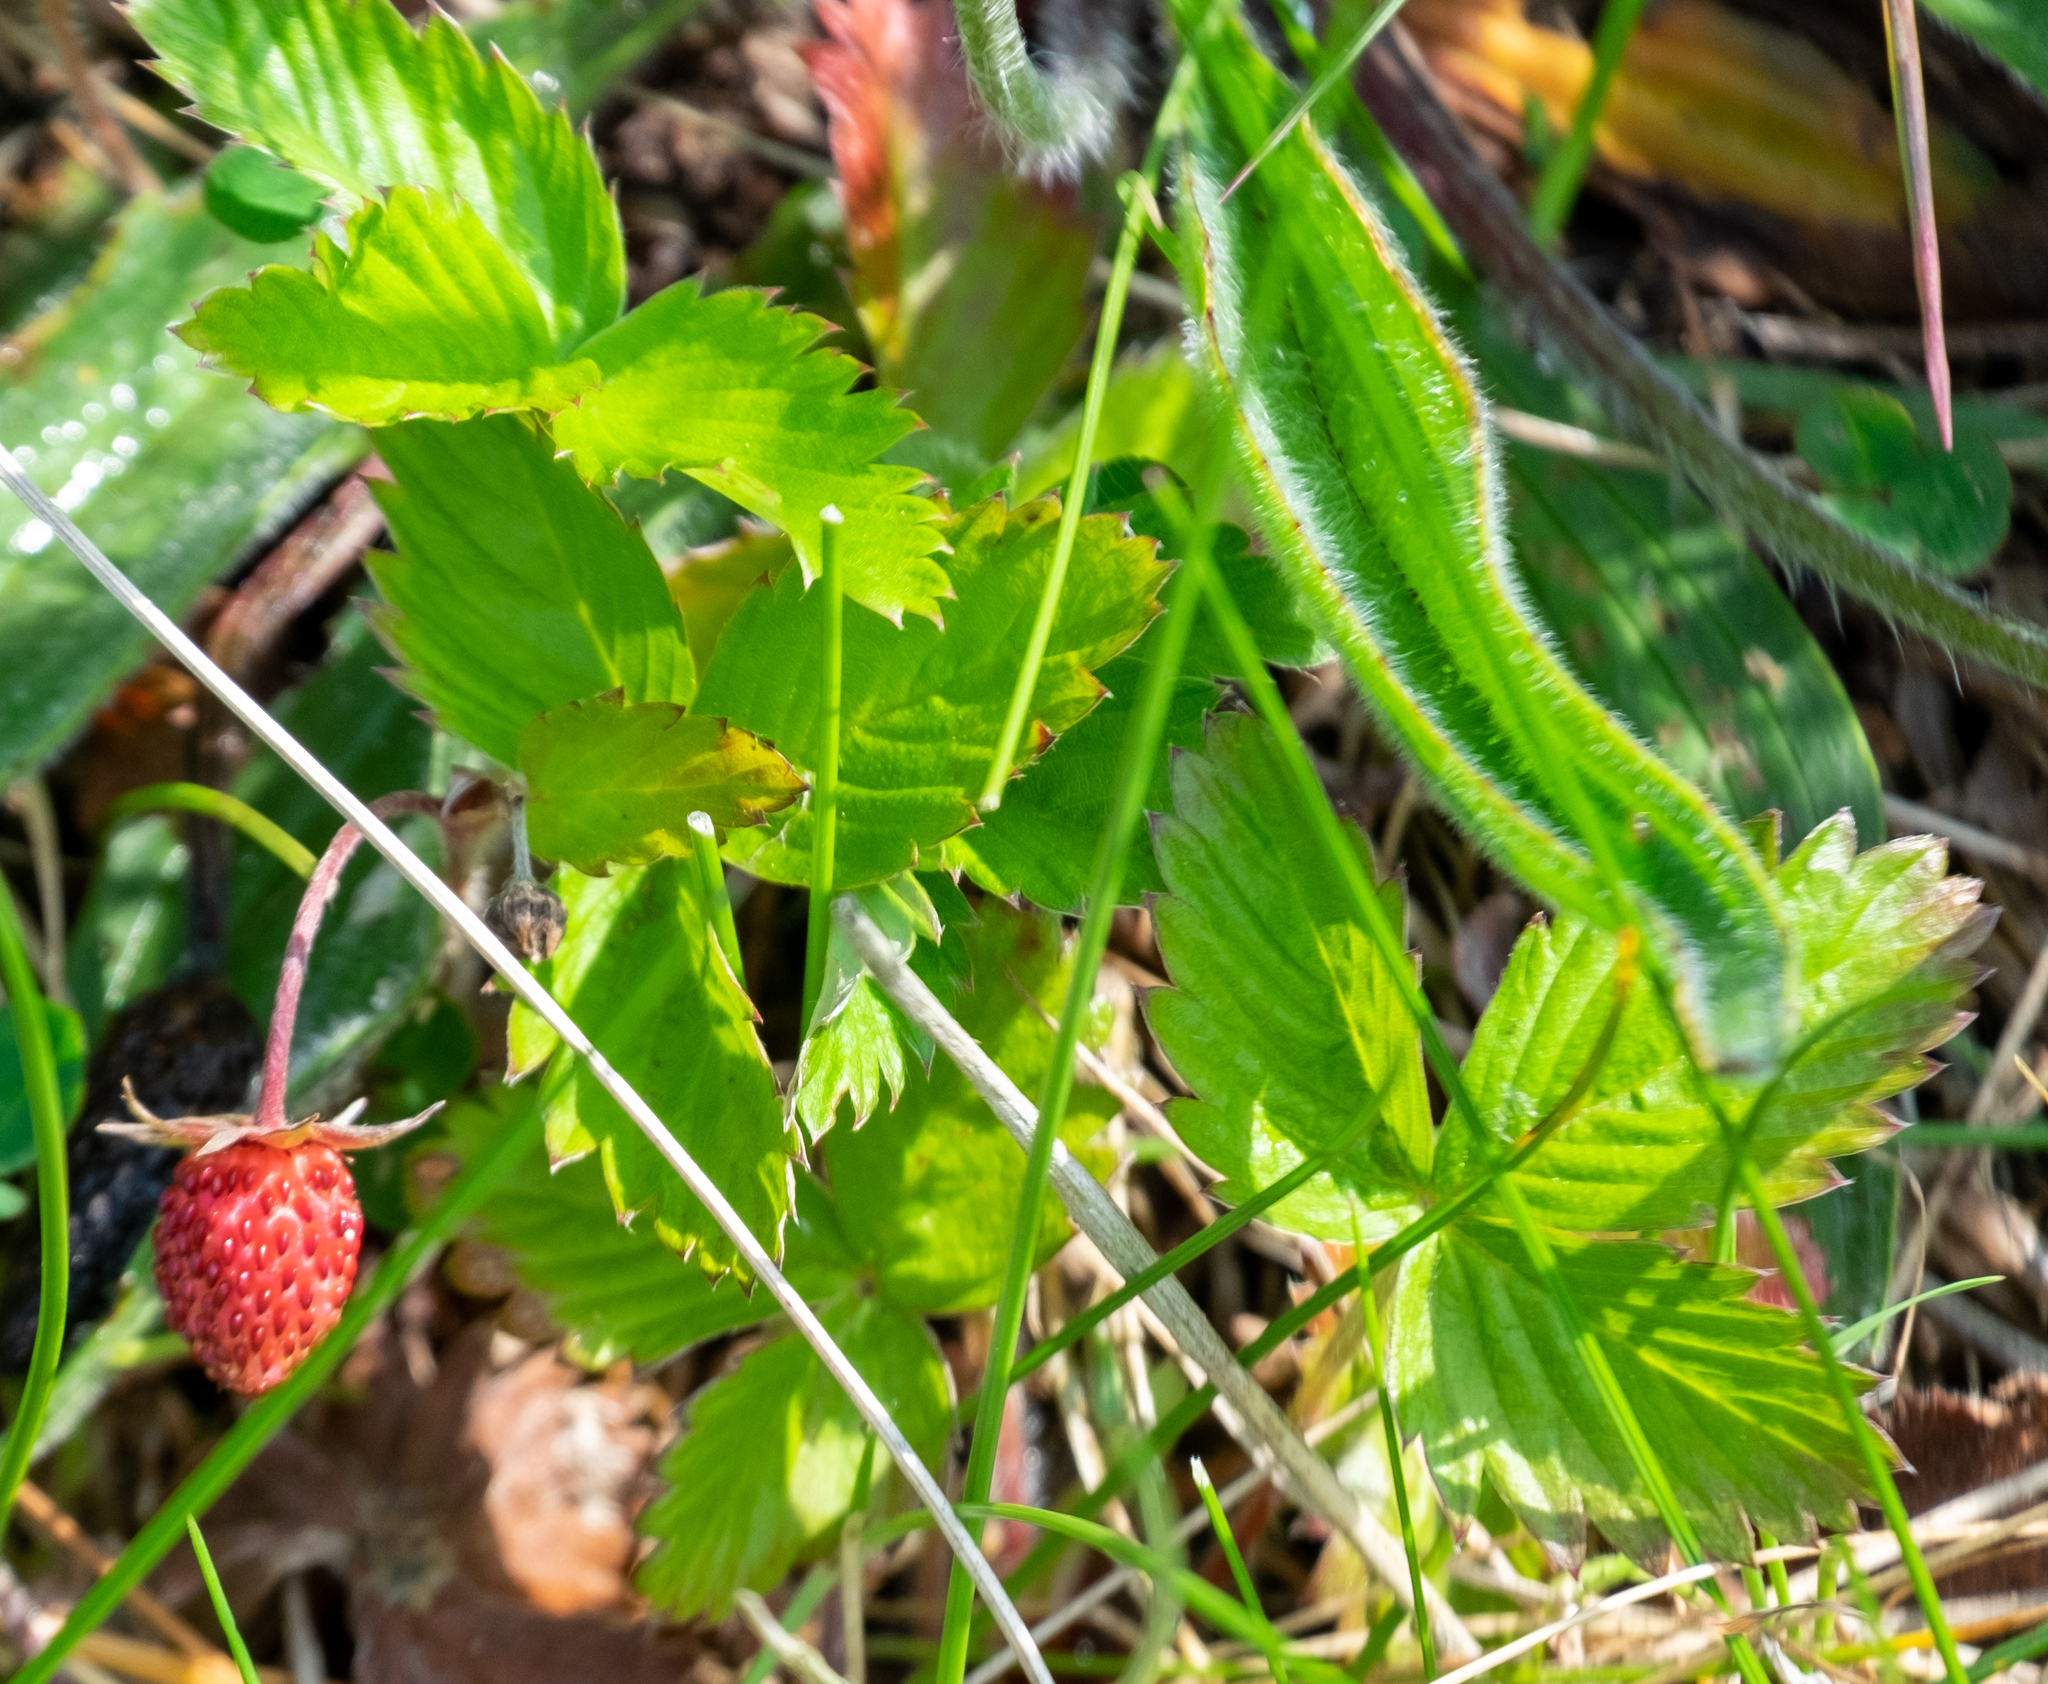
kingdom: Plantae
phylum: Tracheophyta
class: Magnoliopsida
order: Rosales
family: Rosaceae
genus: Fragaria
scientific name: Fragaria vesca
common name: Wild strawberry
